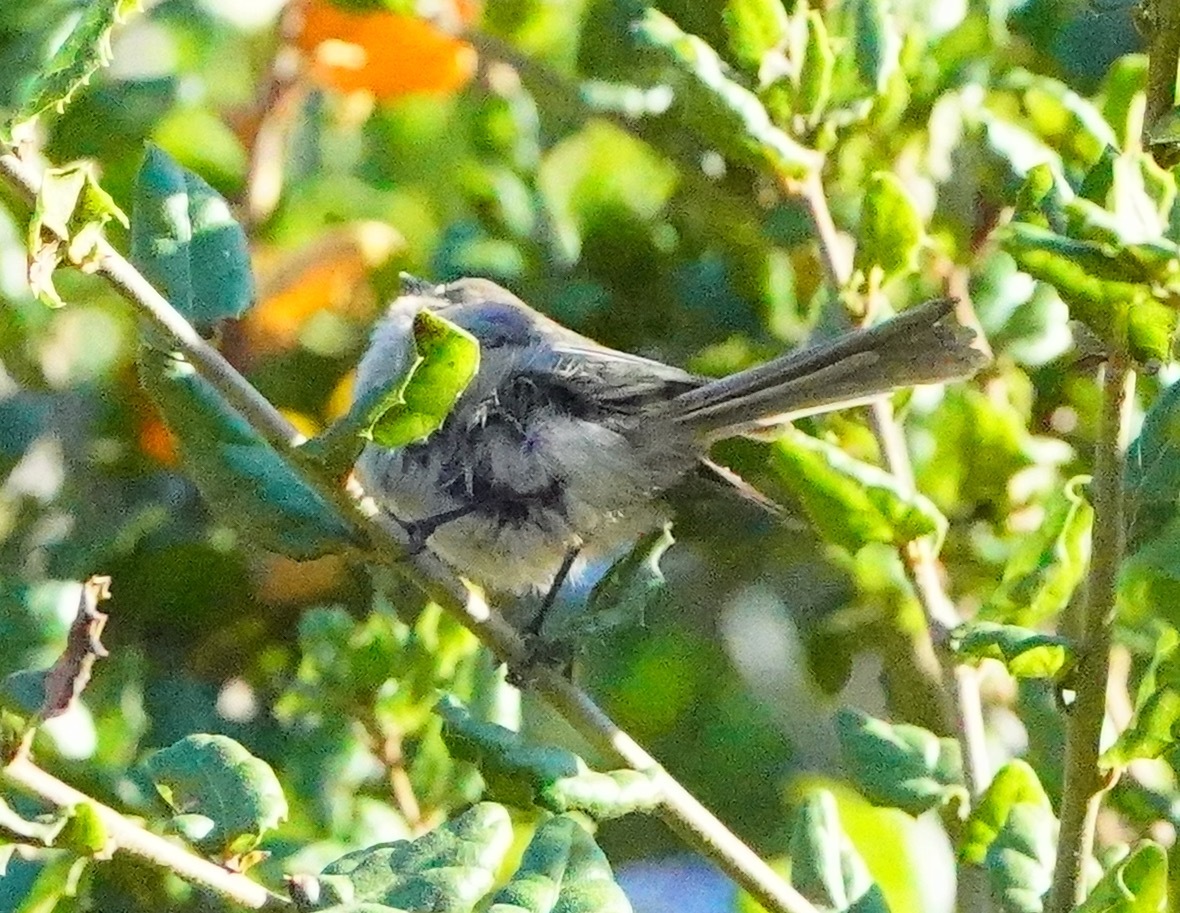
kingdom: Animalia
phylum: Chordata
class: Aves
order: Passeriformes
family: Aegithalidae
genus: Psaltriparus
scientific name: Psaltriparus minimus
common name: American bushtit
